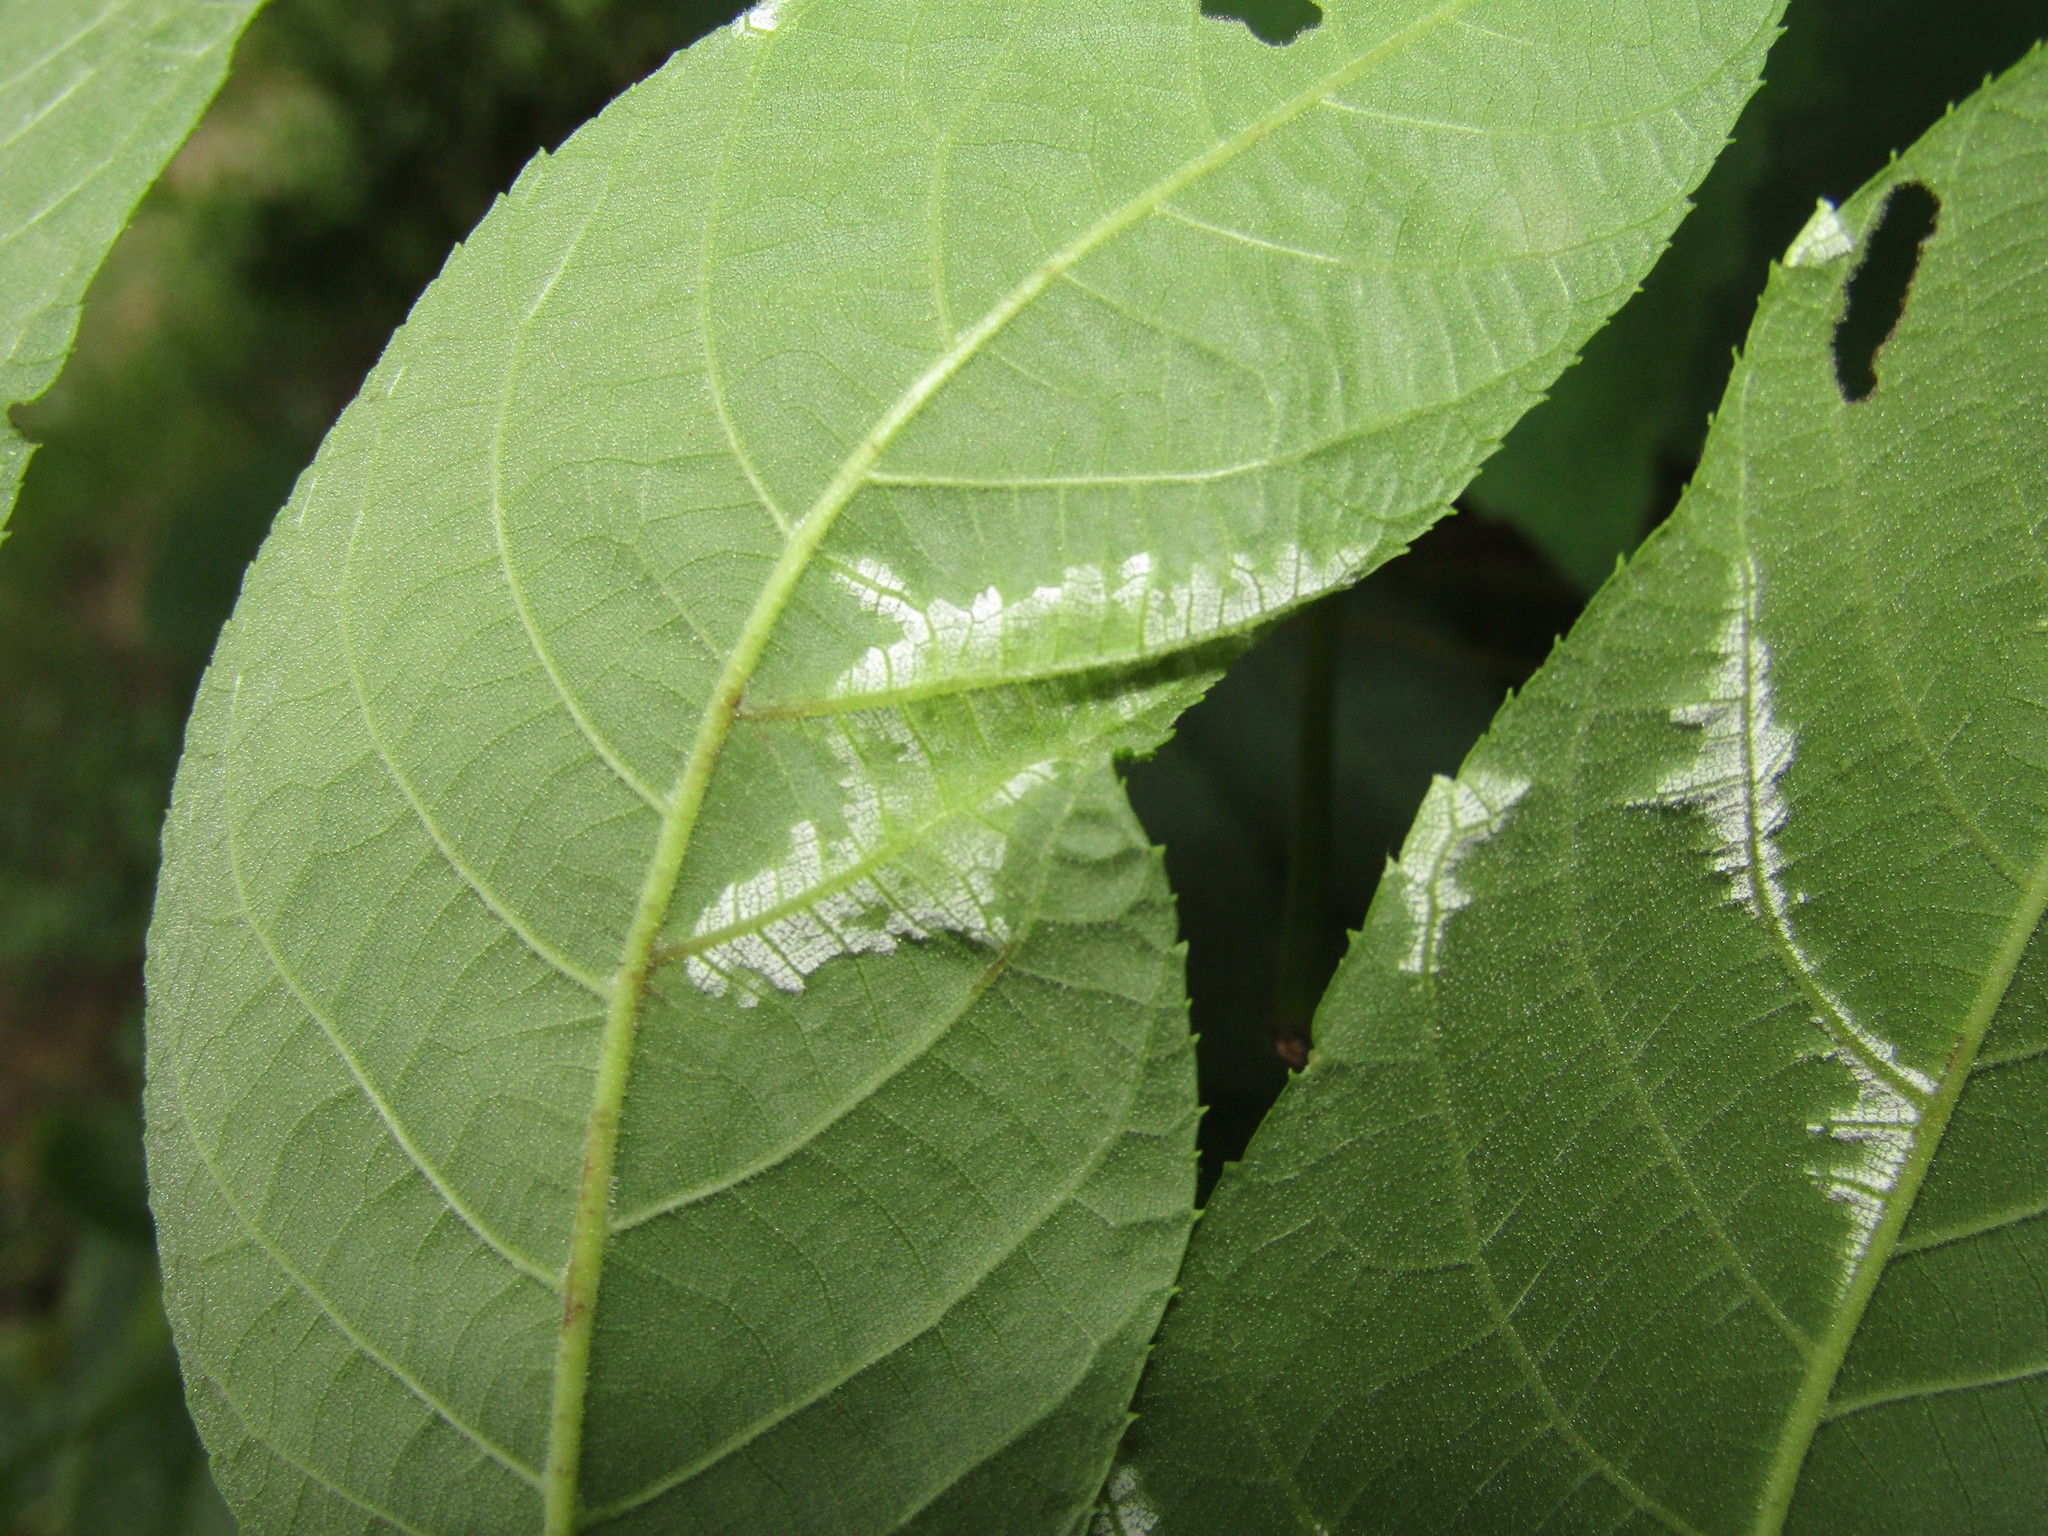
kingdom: Fungi
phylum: Basidiomycota
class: Exobasidiomycetes
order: Microstromatales
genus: Pseudomicrostroma
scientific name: Pseudomicrostroma juglandis
